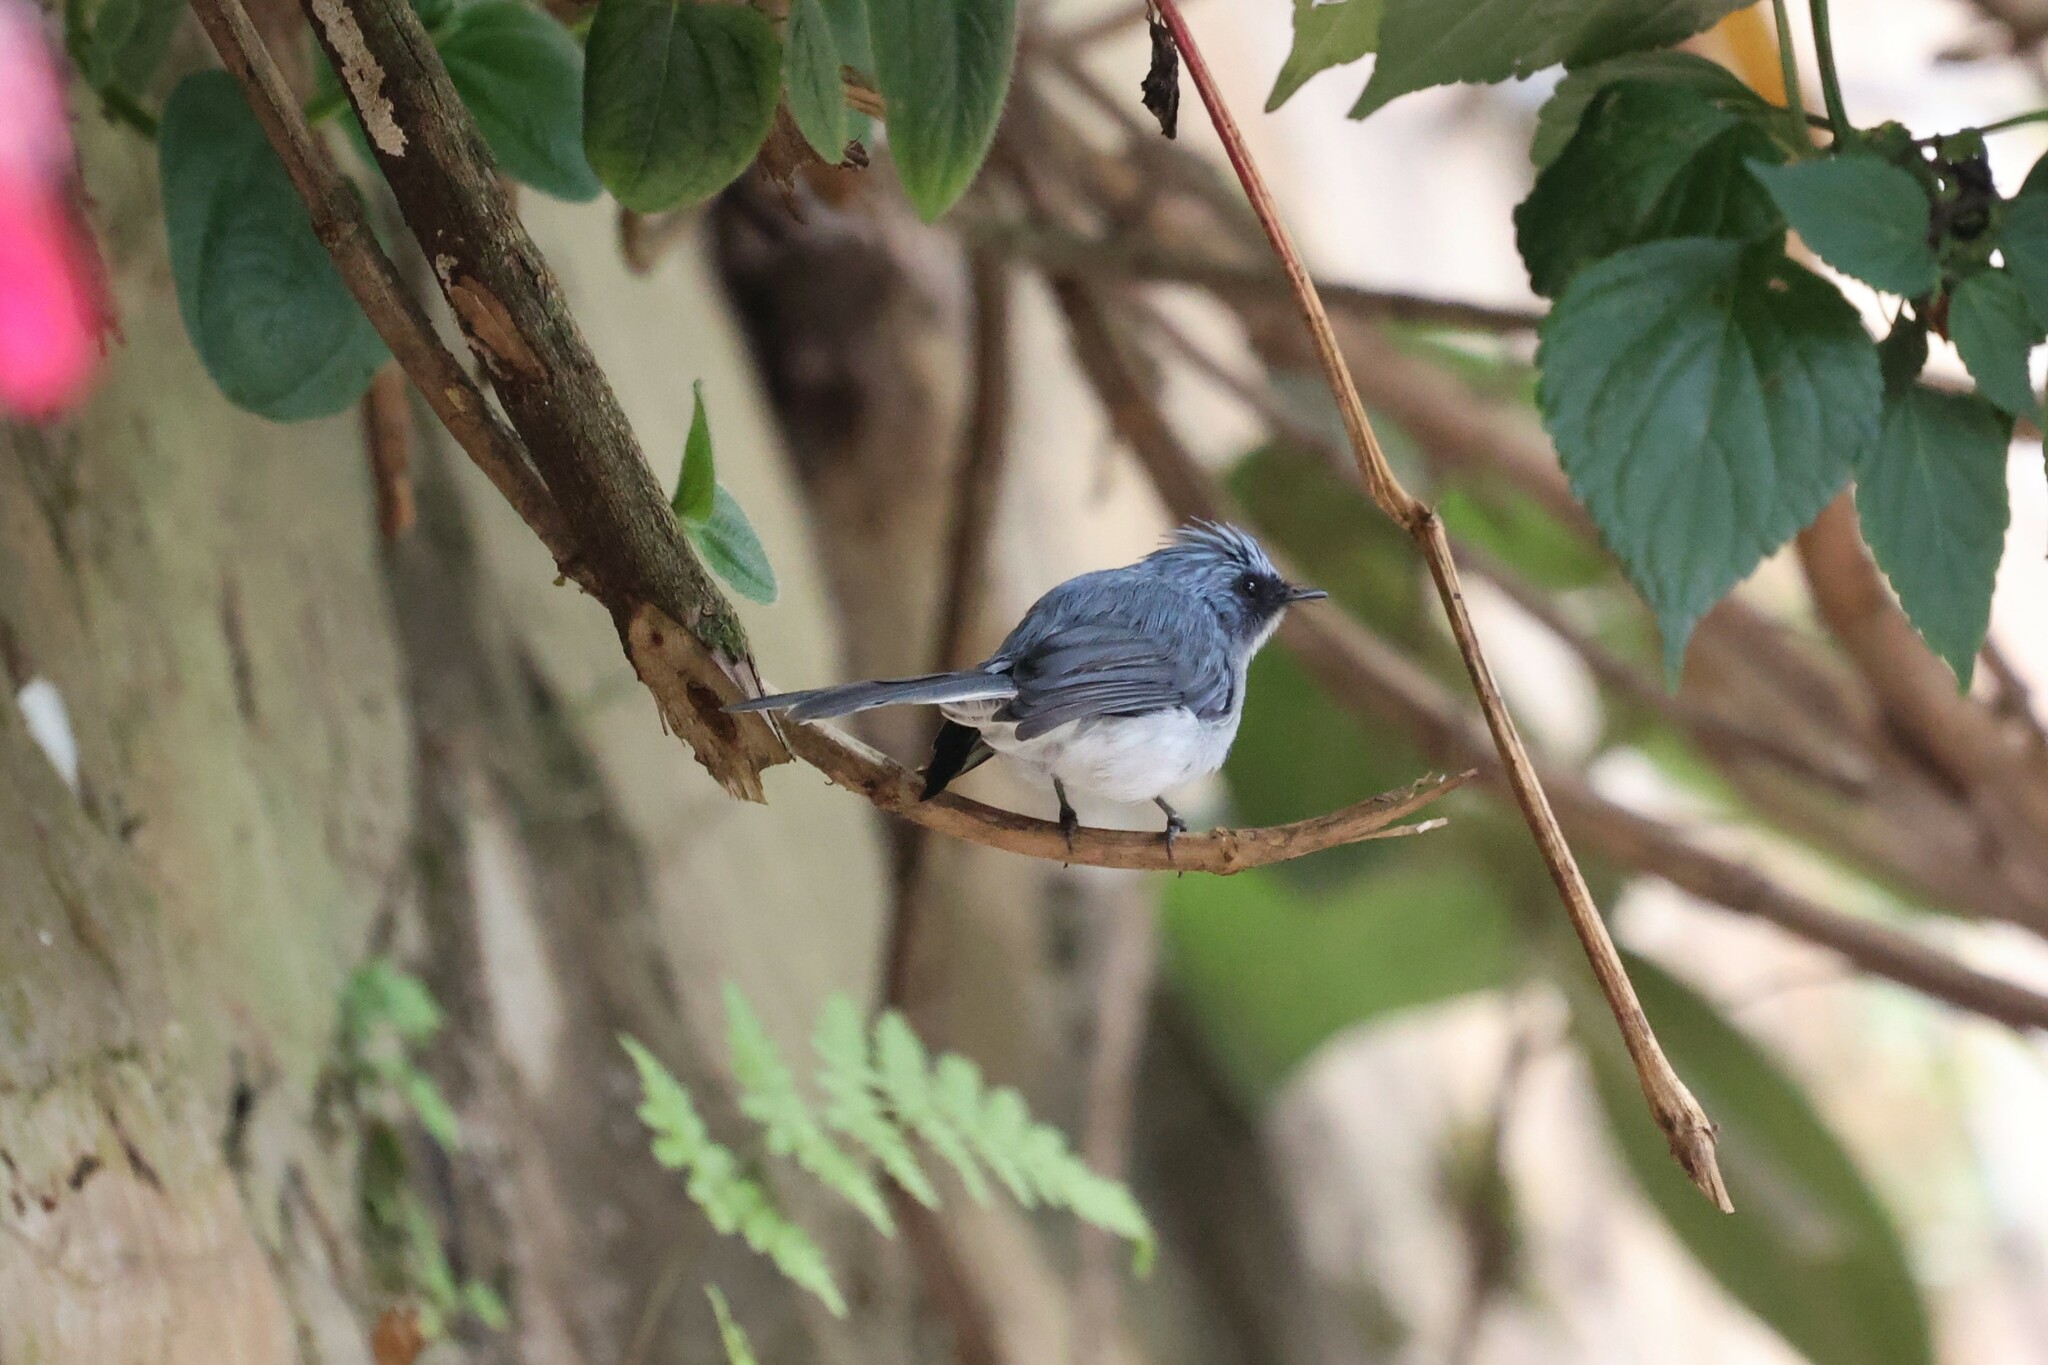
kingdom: Animalia
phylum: Chordata
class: Aves
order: Passeriformes
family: Stenostiridae
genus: Elminia
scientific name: Elminia albicauda
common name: White-tailed blue flycatcher
